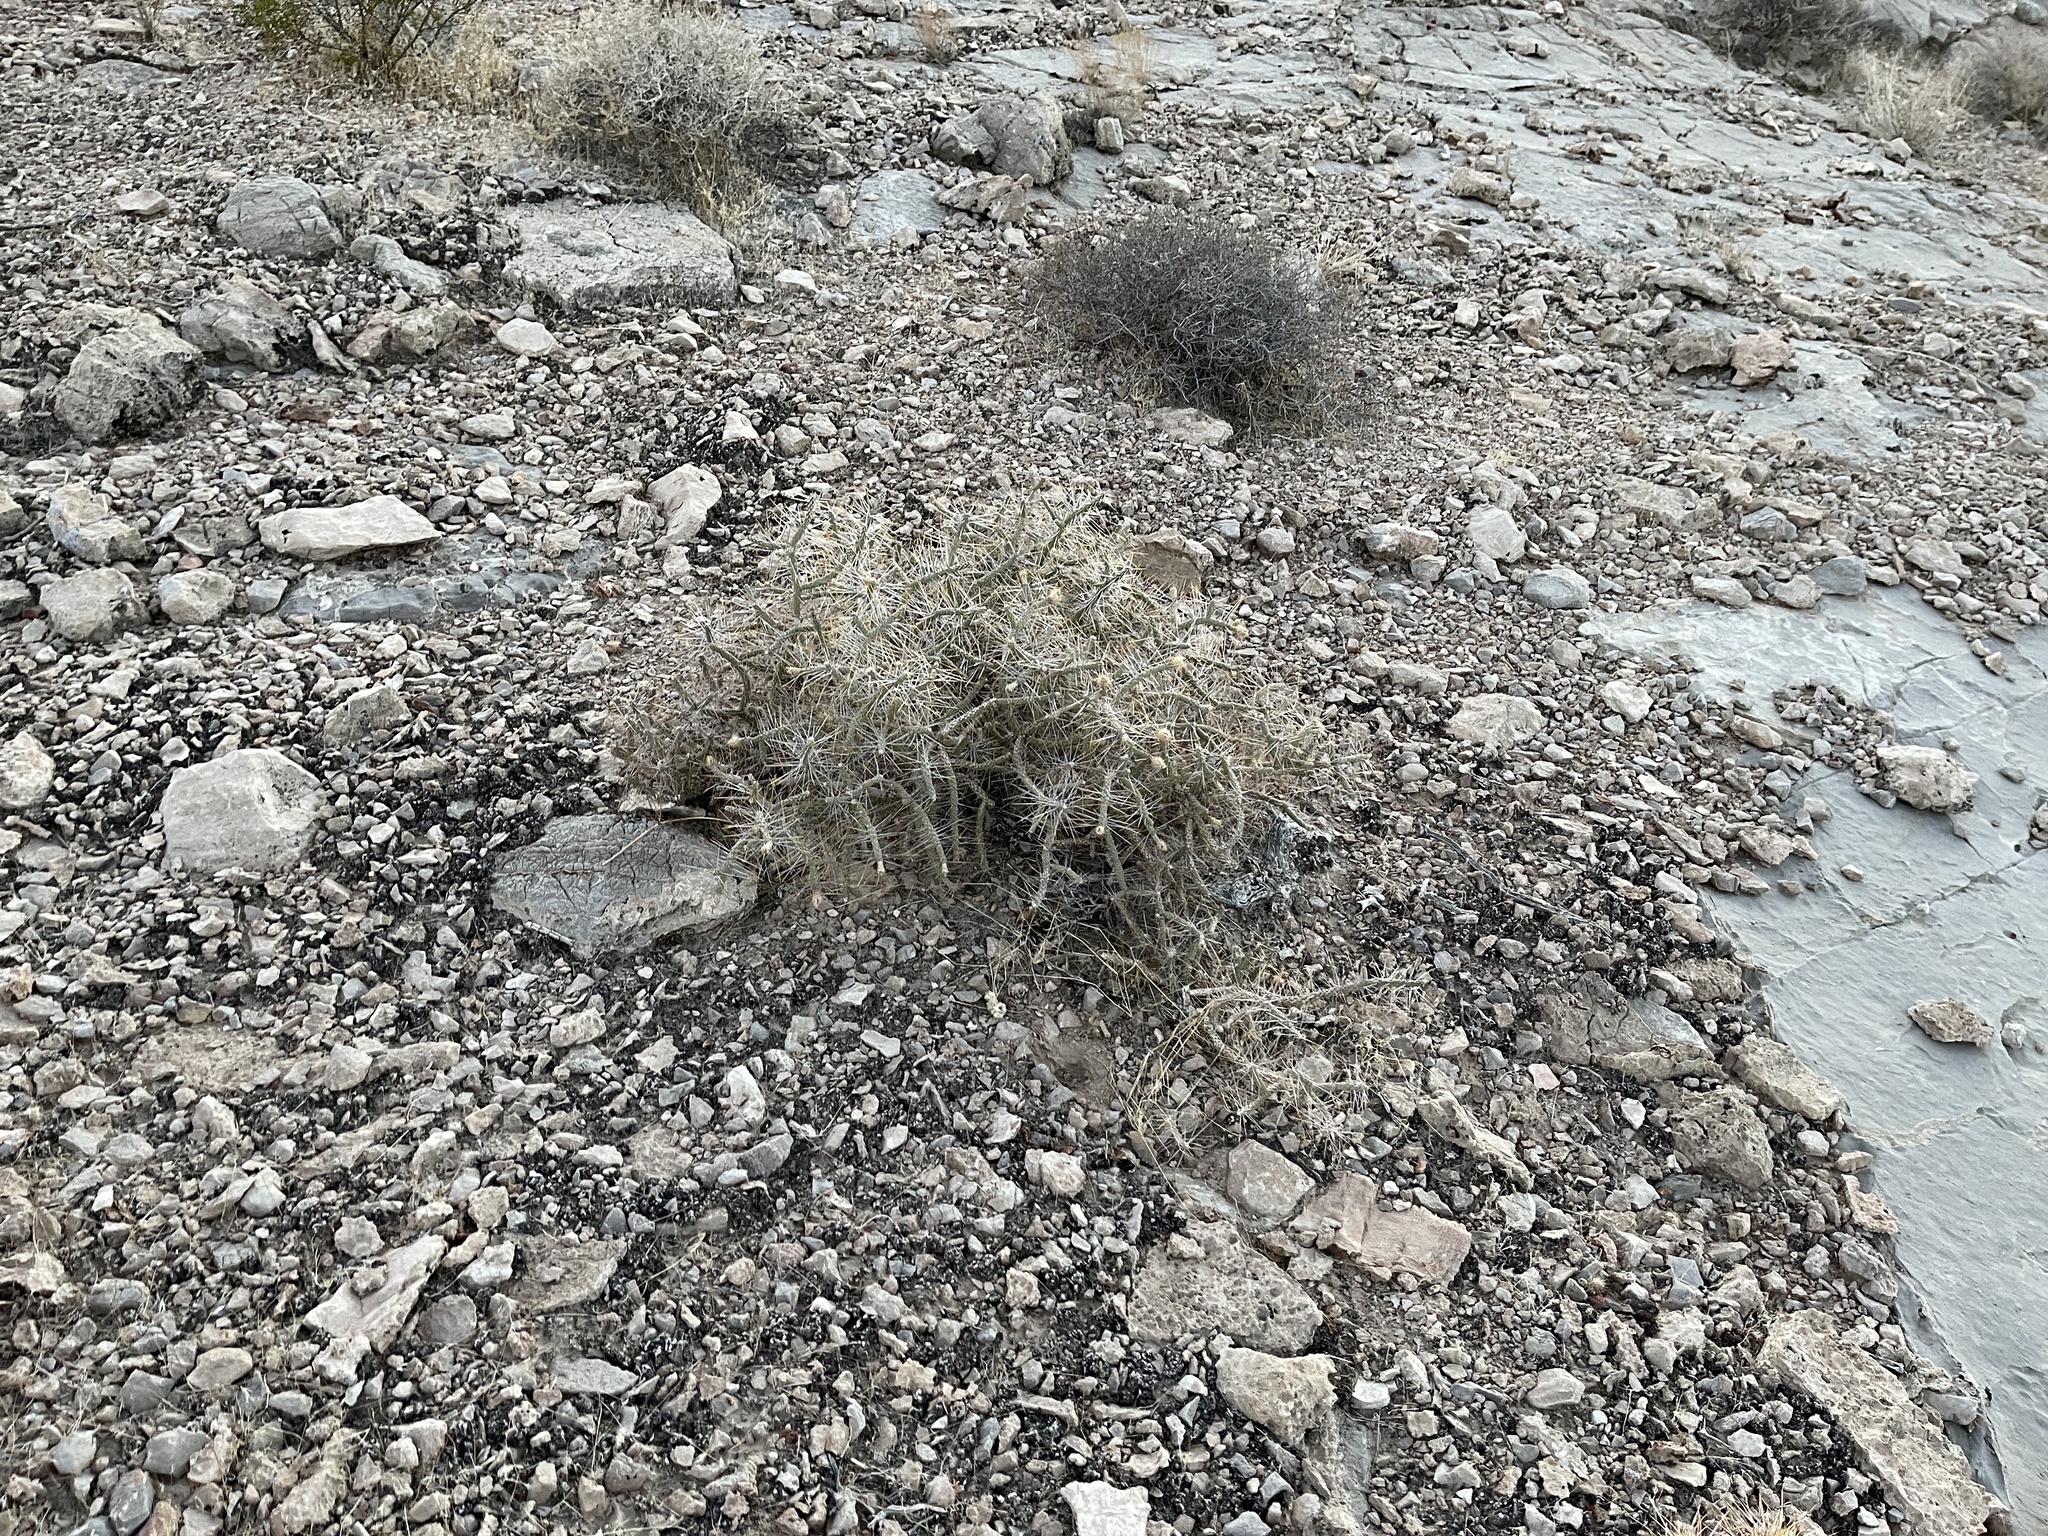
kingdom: Plantae
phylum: Tracheophyta
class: Magnoliopsida
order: Caryophyllales
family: Cactaceae
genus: Cylindropuntia
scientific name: Cylindropuntia ramosissima
